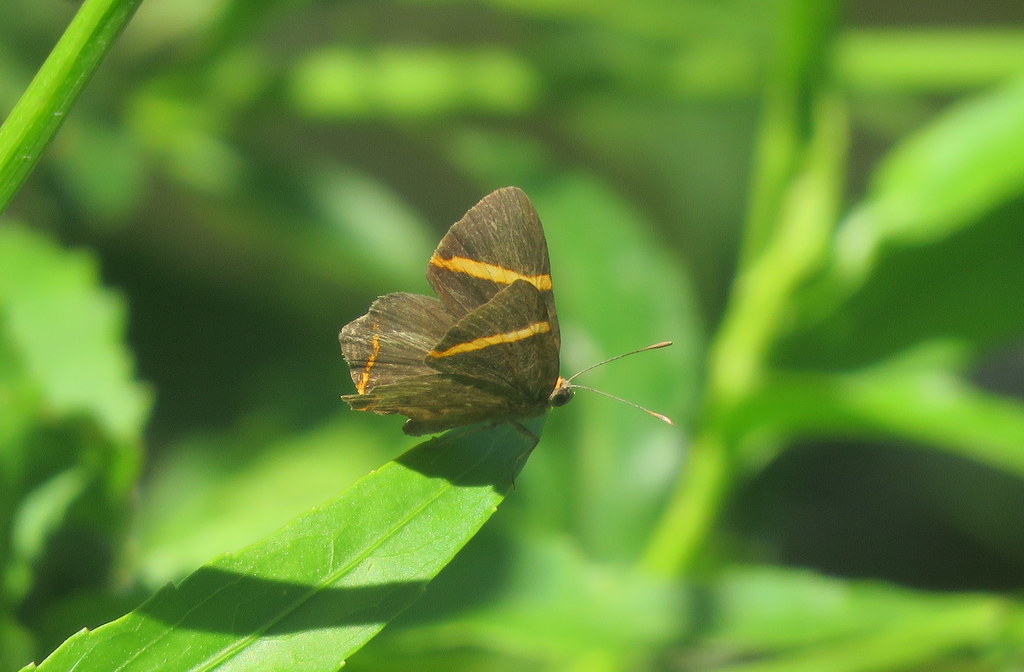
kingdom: Animalia
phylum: Arthropoda
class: Insecta
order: Lepidoptera
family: Riodinidae
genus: Riodina
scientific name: Riodina lysippoides
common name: Little dancer metalmark
